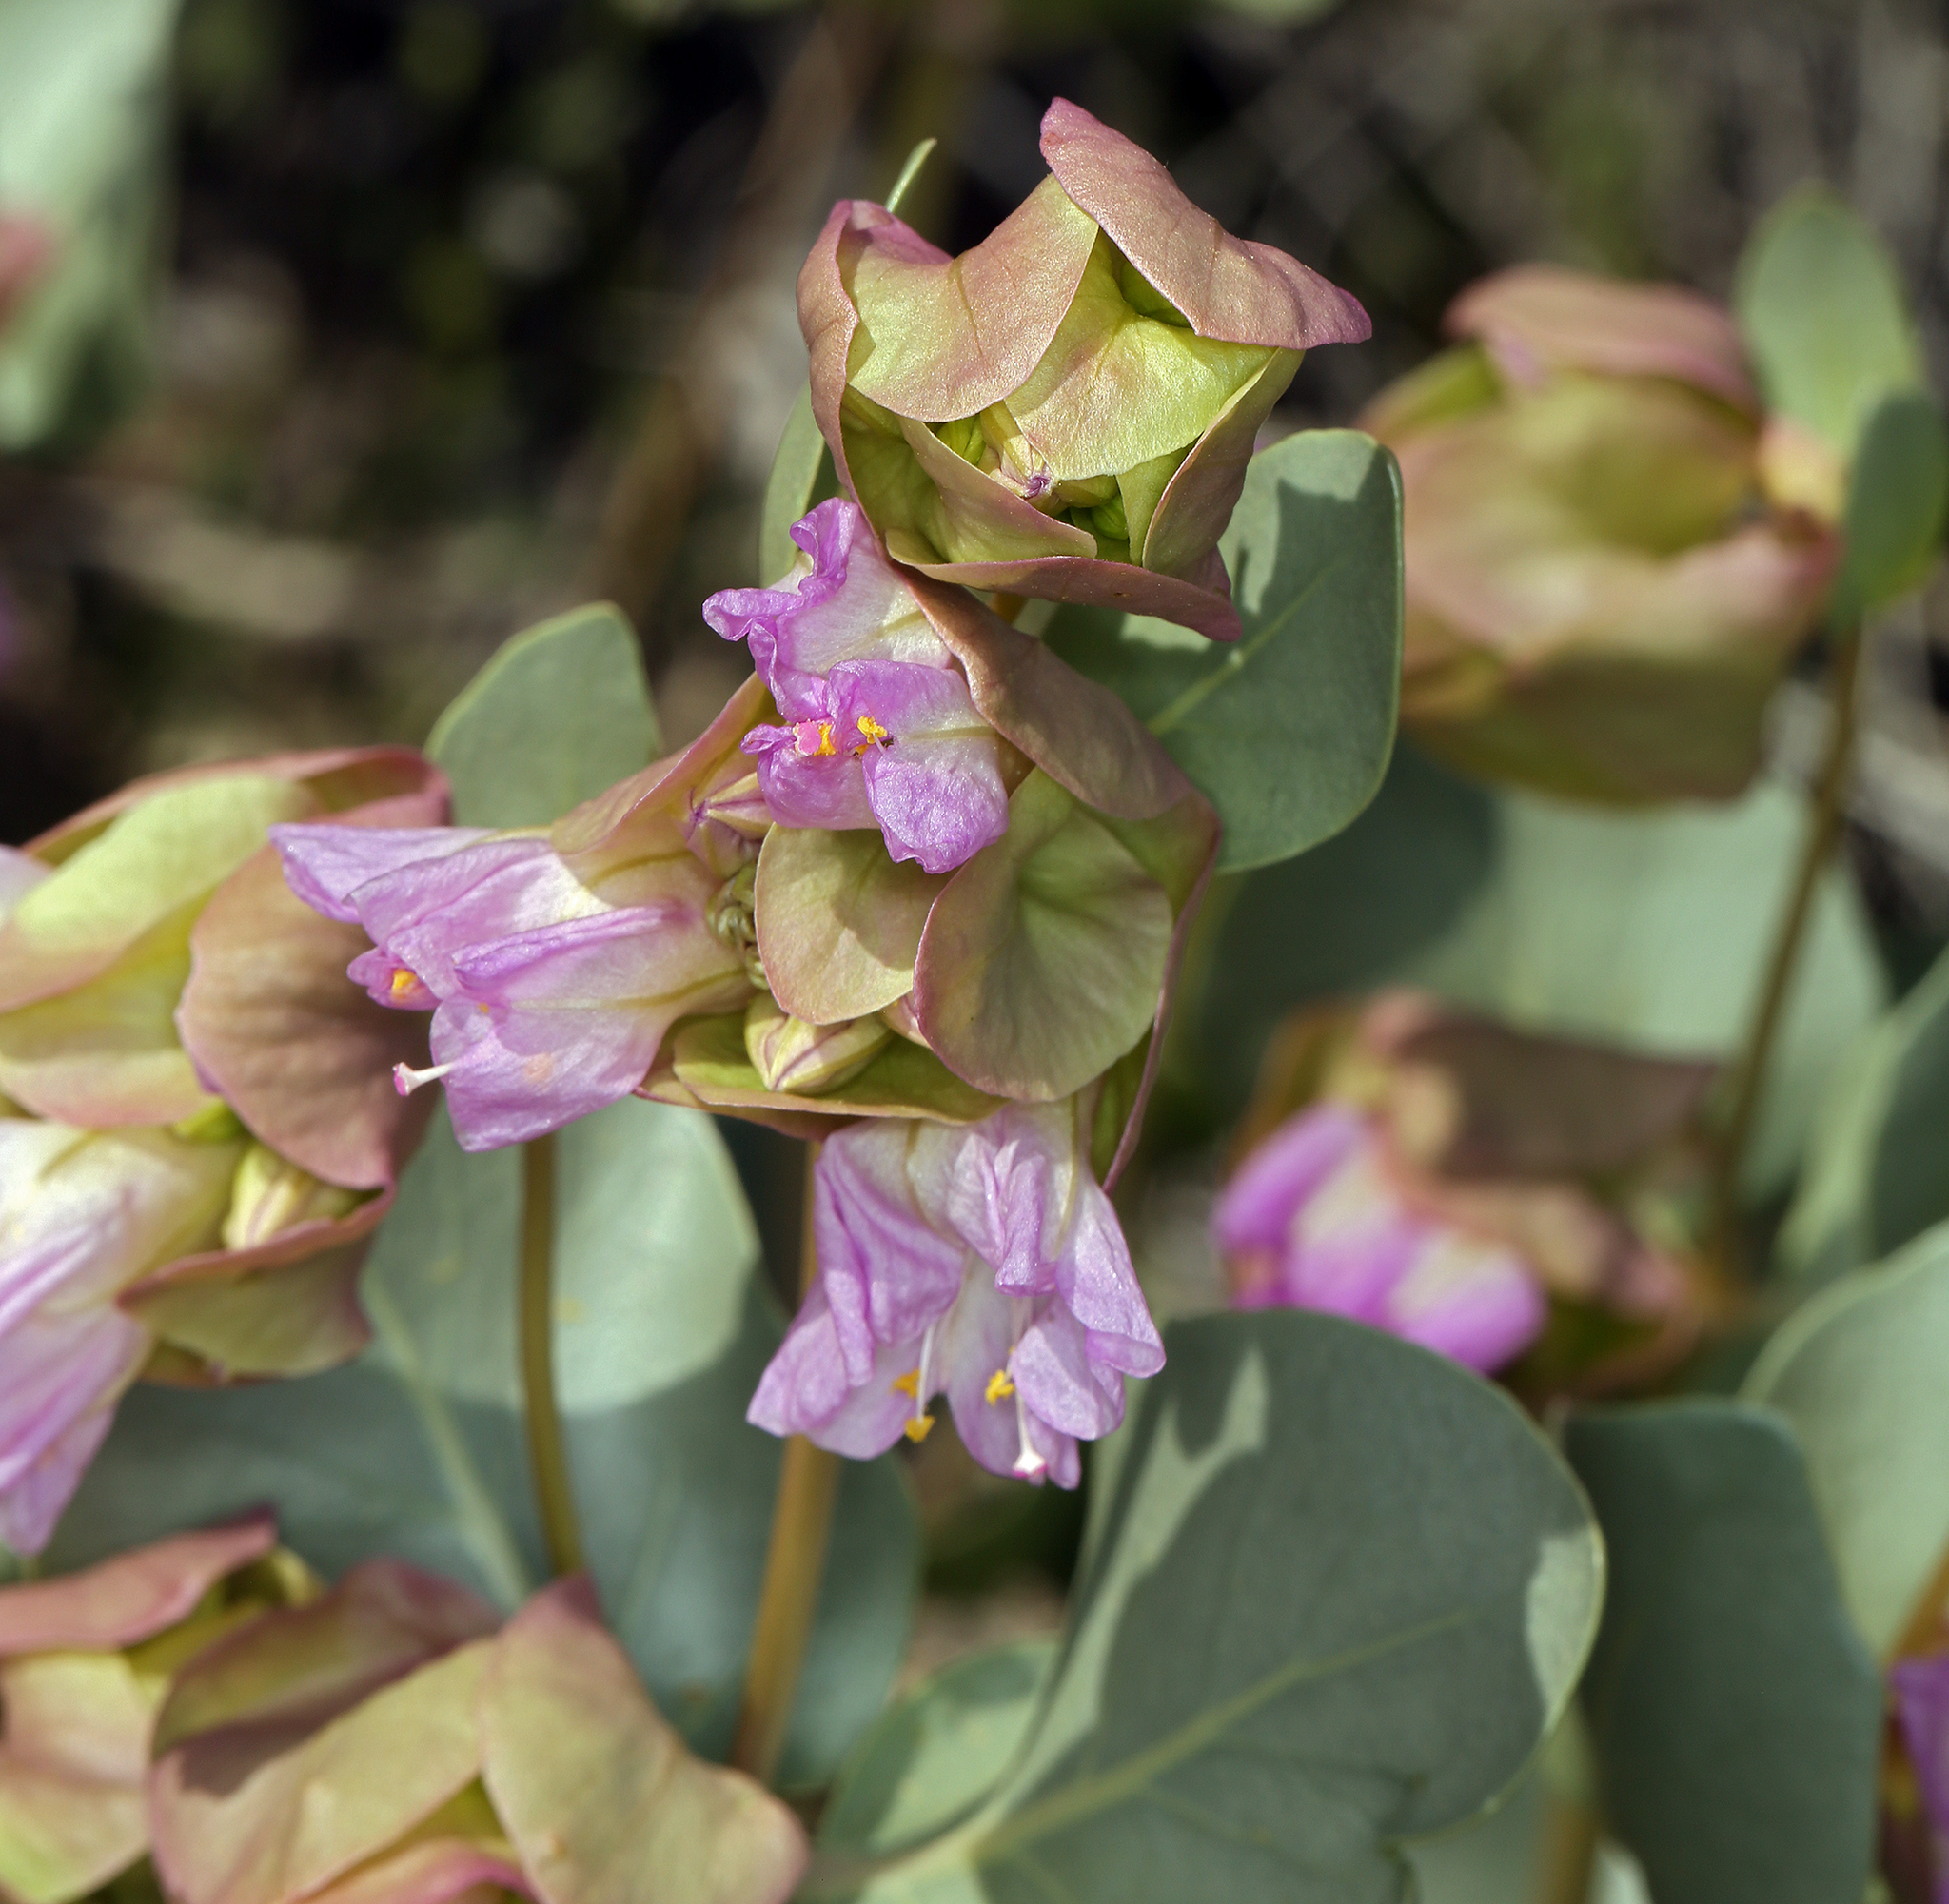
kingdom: Plantae
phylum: Tracheophyta
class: Magnoliopsida
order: Caryophyllales
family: Nyctaginaceae
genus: Mirabilis
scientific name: Mirabilis alipes
